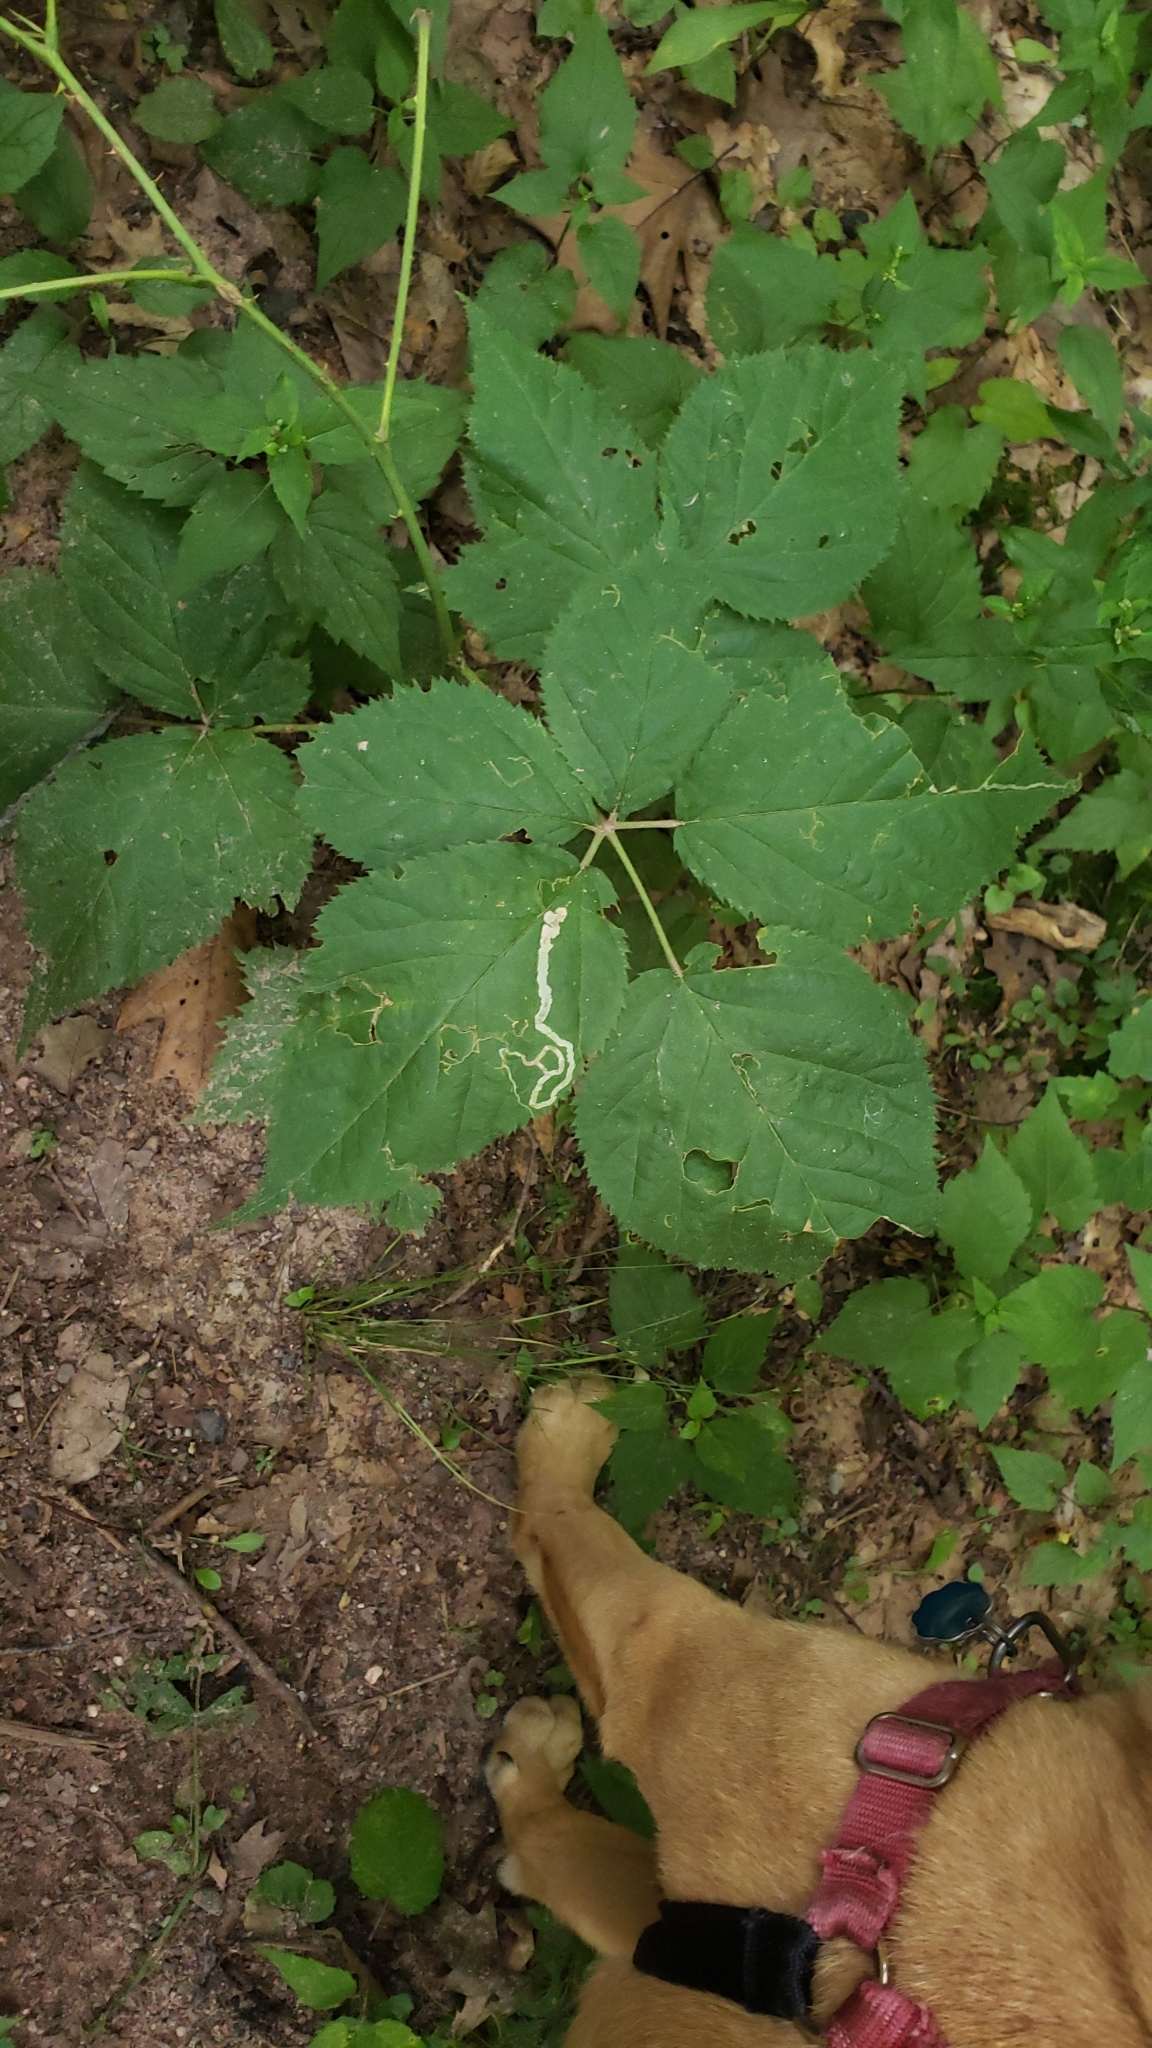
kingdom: Animalia
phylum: Arthropoda
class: Insecta
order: Diptera
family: Agromyzidae
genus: Agromyza
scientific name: Agromyza vockerothi
